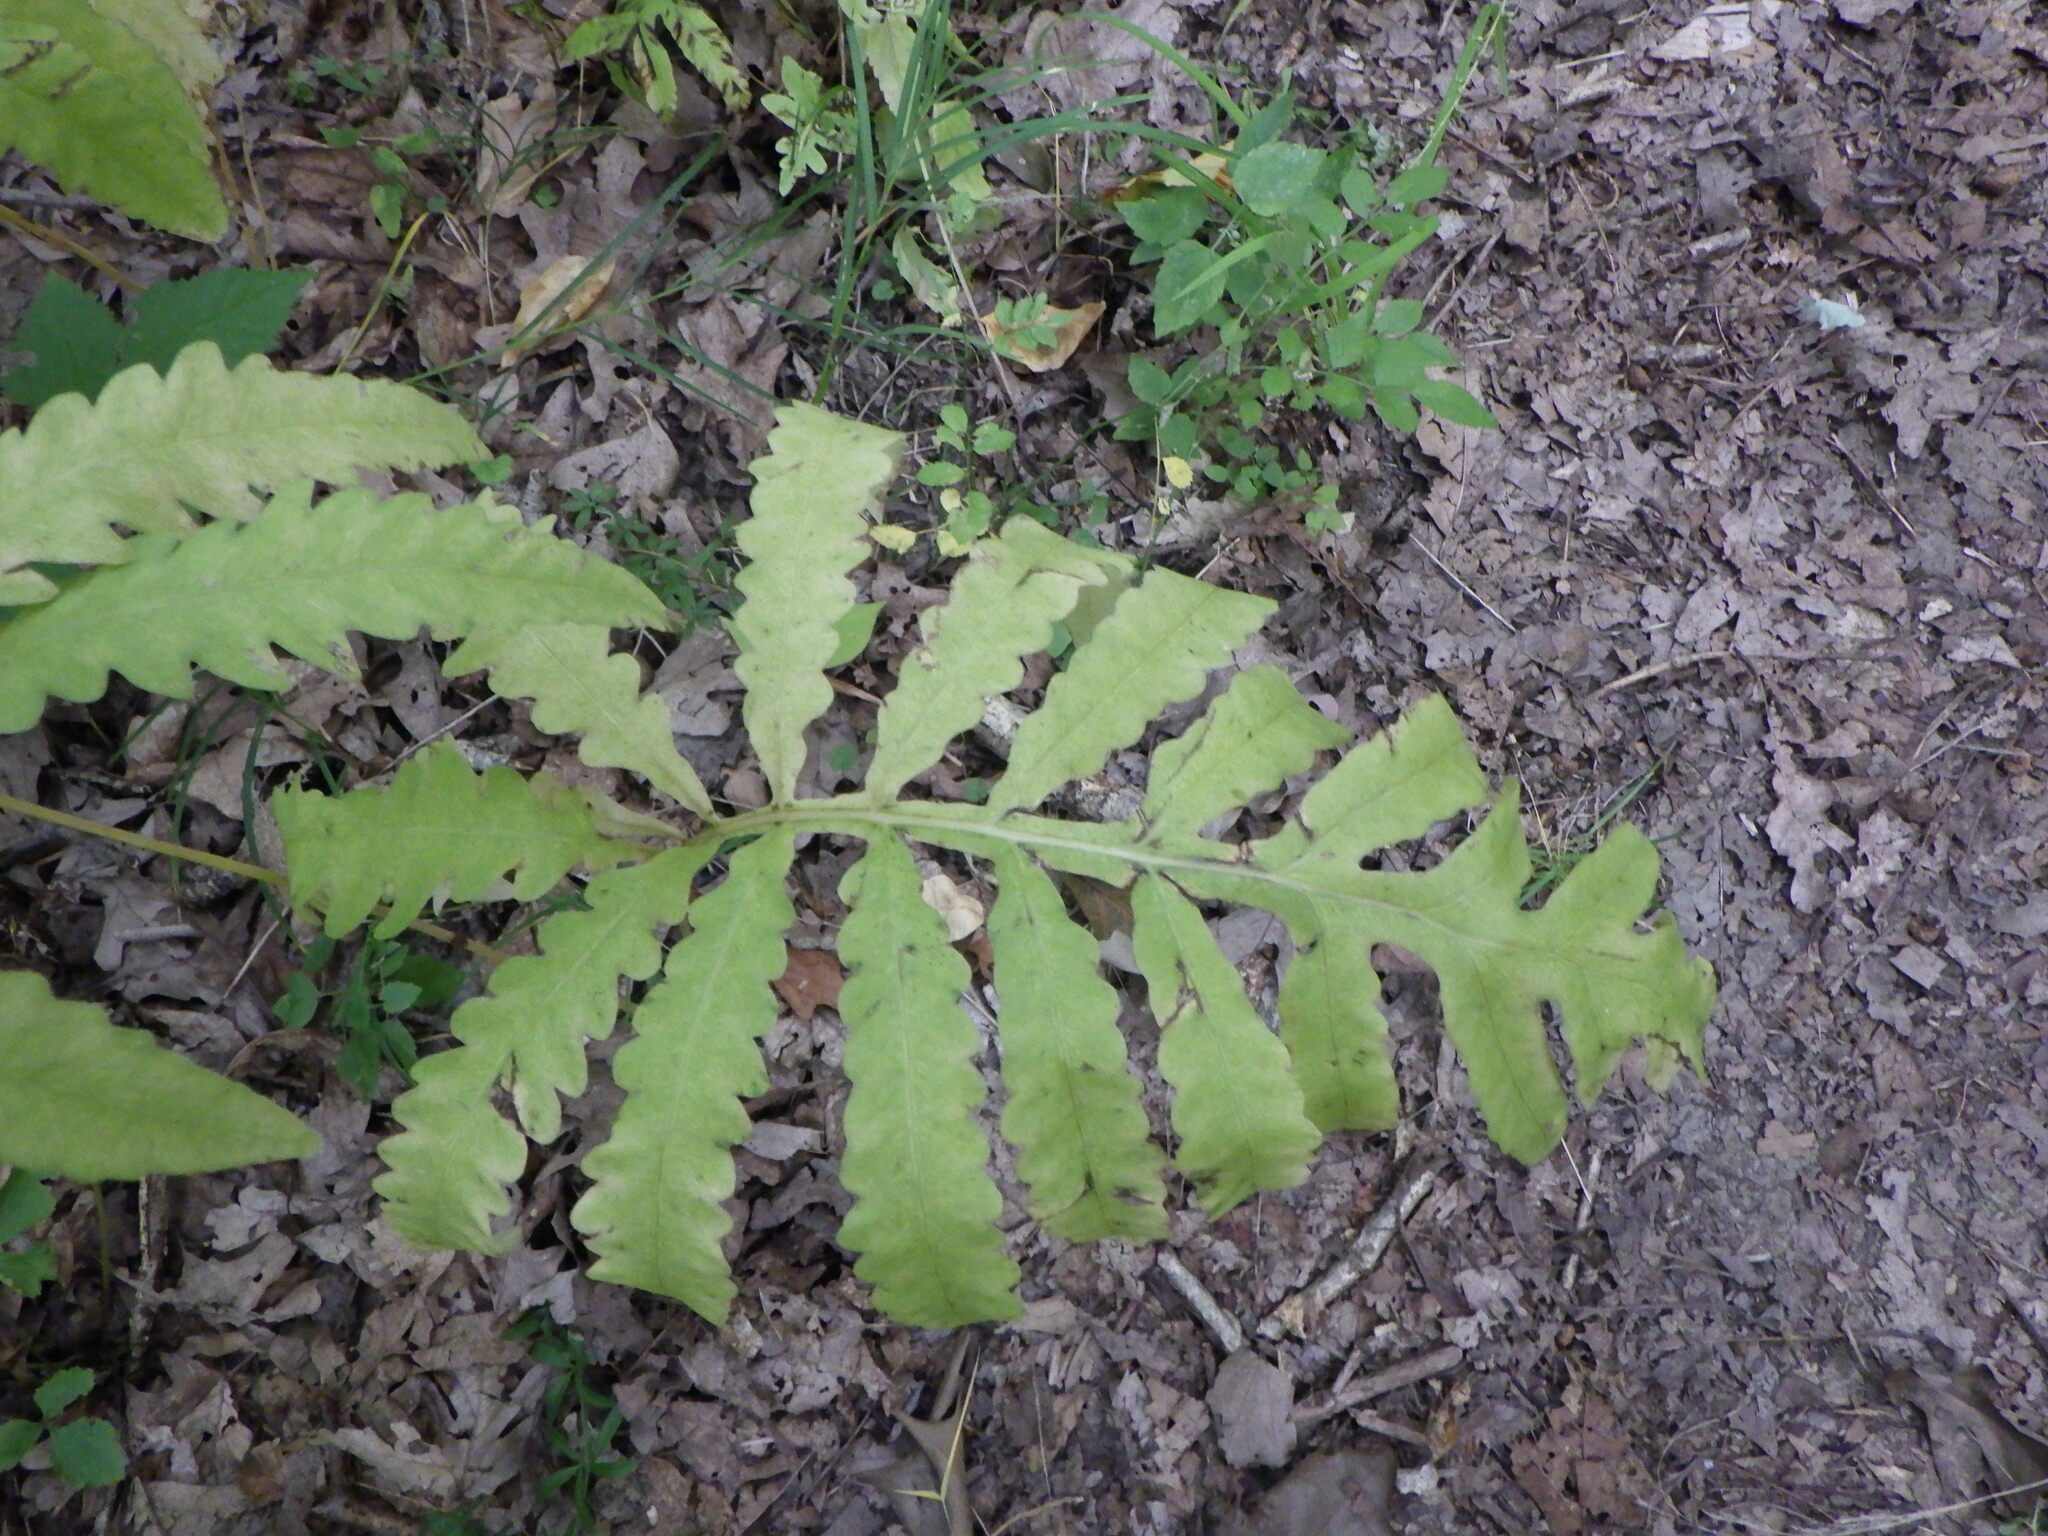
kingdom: Plantae
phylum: Tracheophyta
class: Polypodiopsida
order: Polypodiales
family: Onocleaceae
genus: Onoclea
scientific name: Onoclea sensibilis
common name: Sensitive fern
